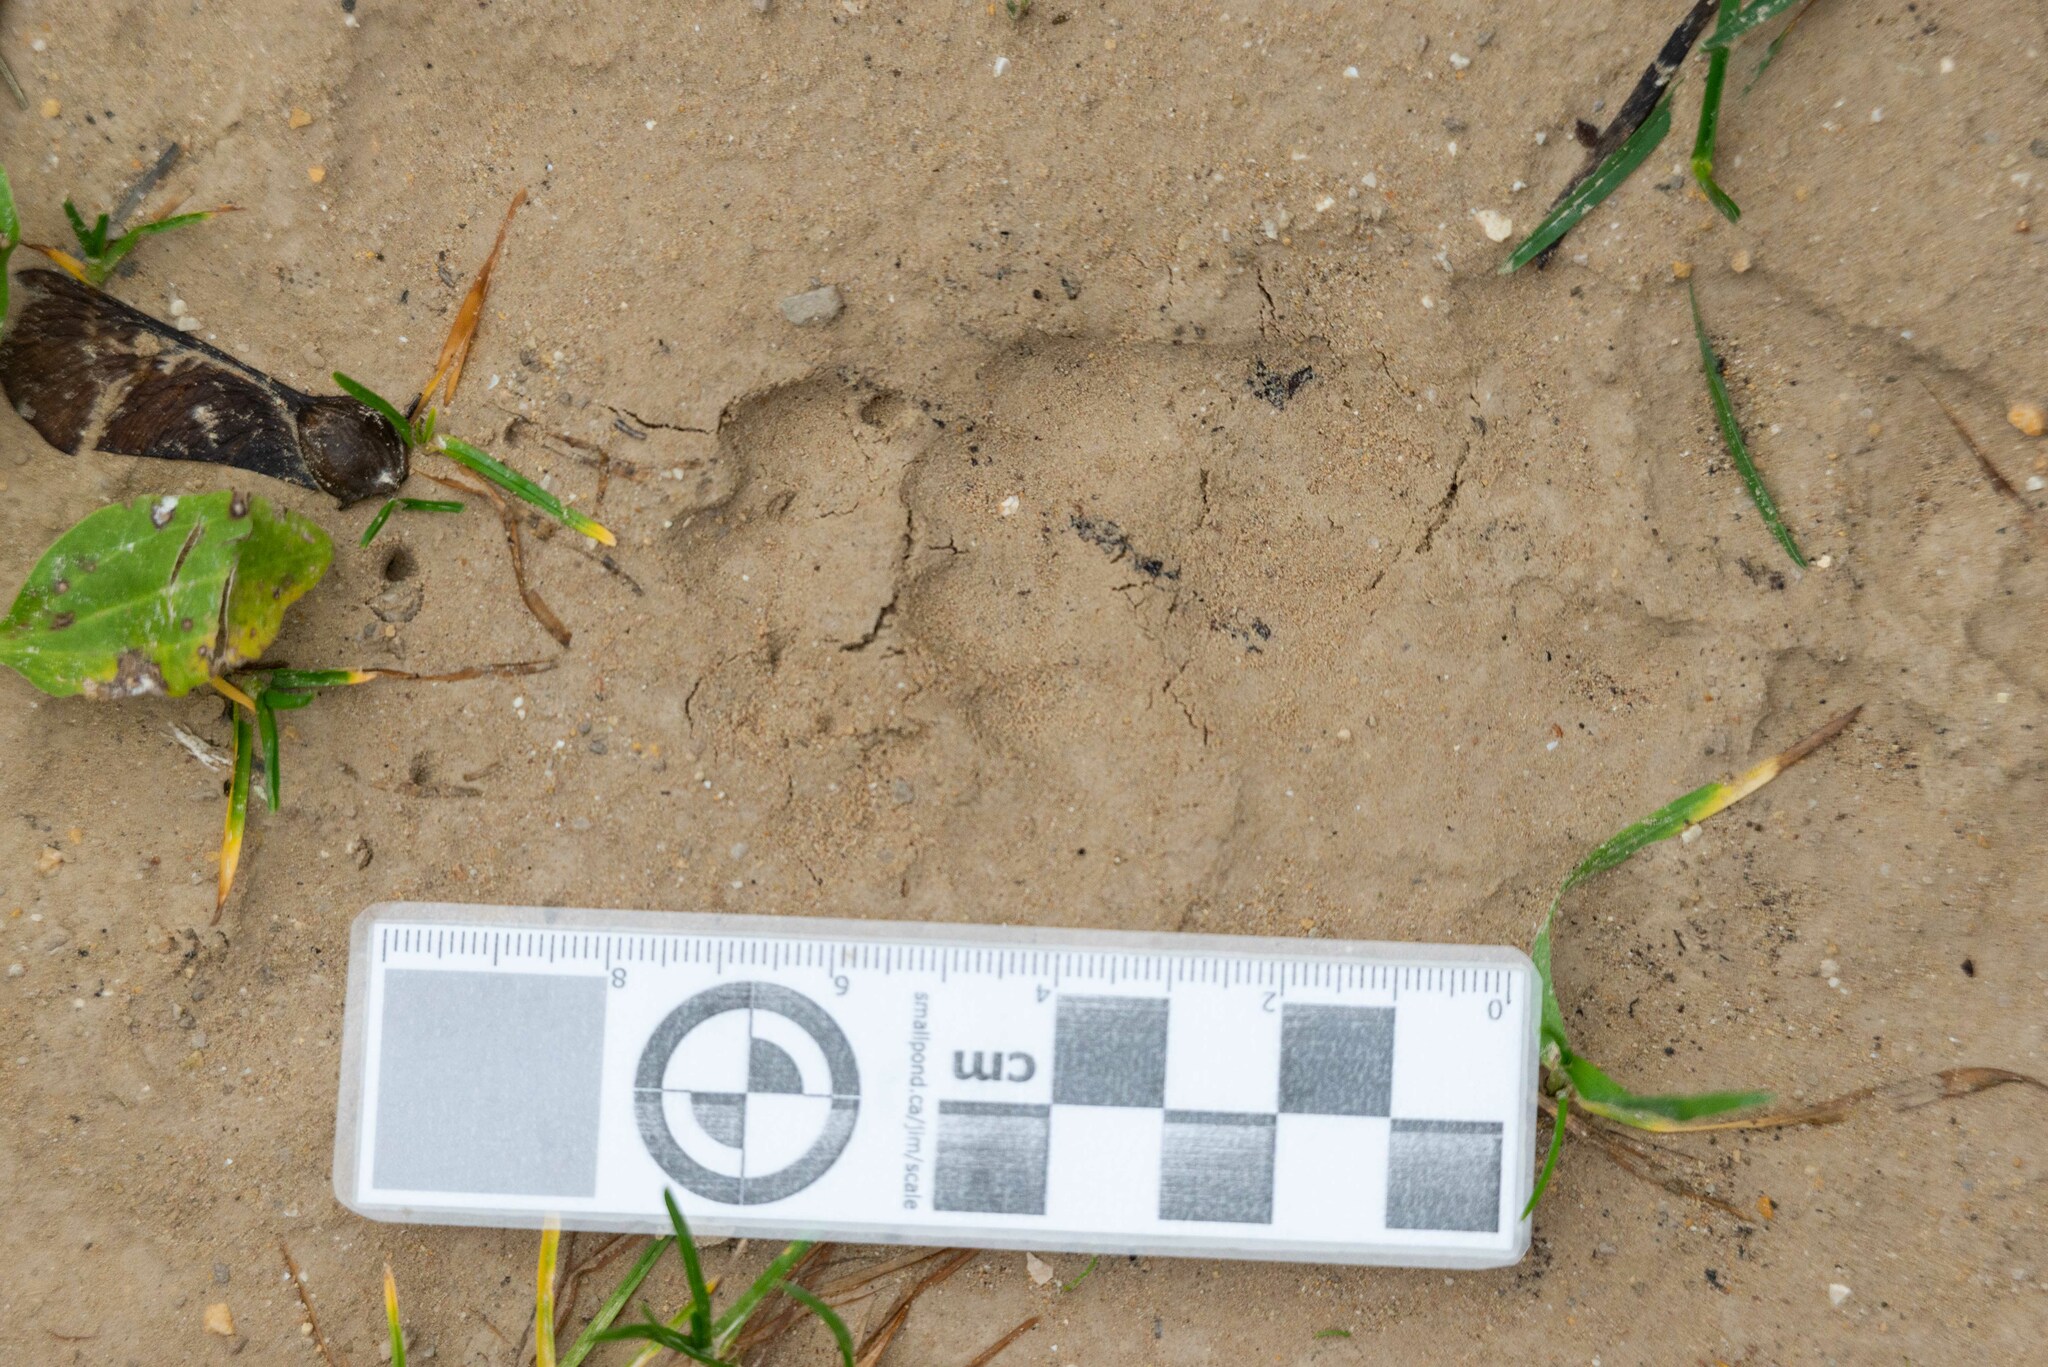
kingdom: Animalia
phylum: Chordata
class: Mammalia
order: Carnivora
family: Mustelidae
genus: Meles
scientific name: Meles meles
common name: Eurasian badger
